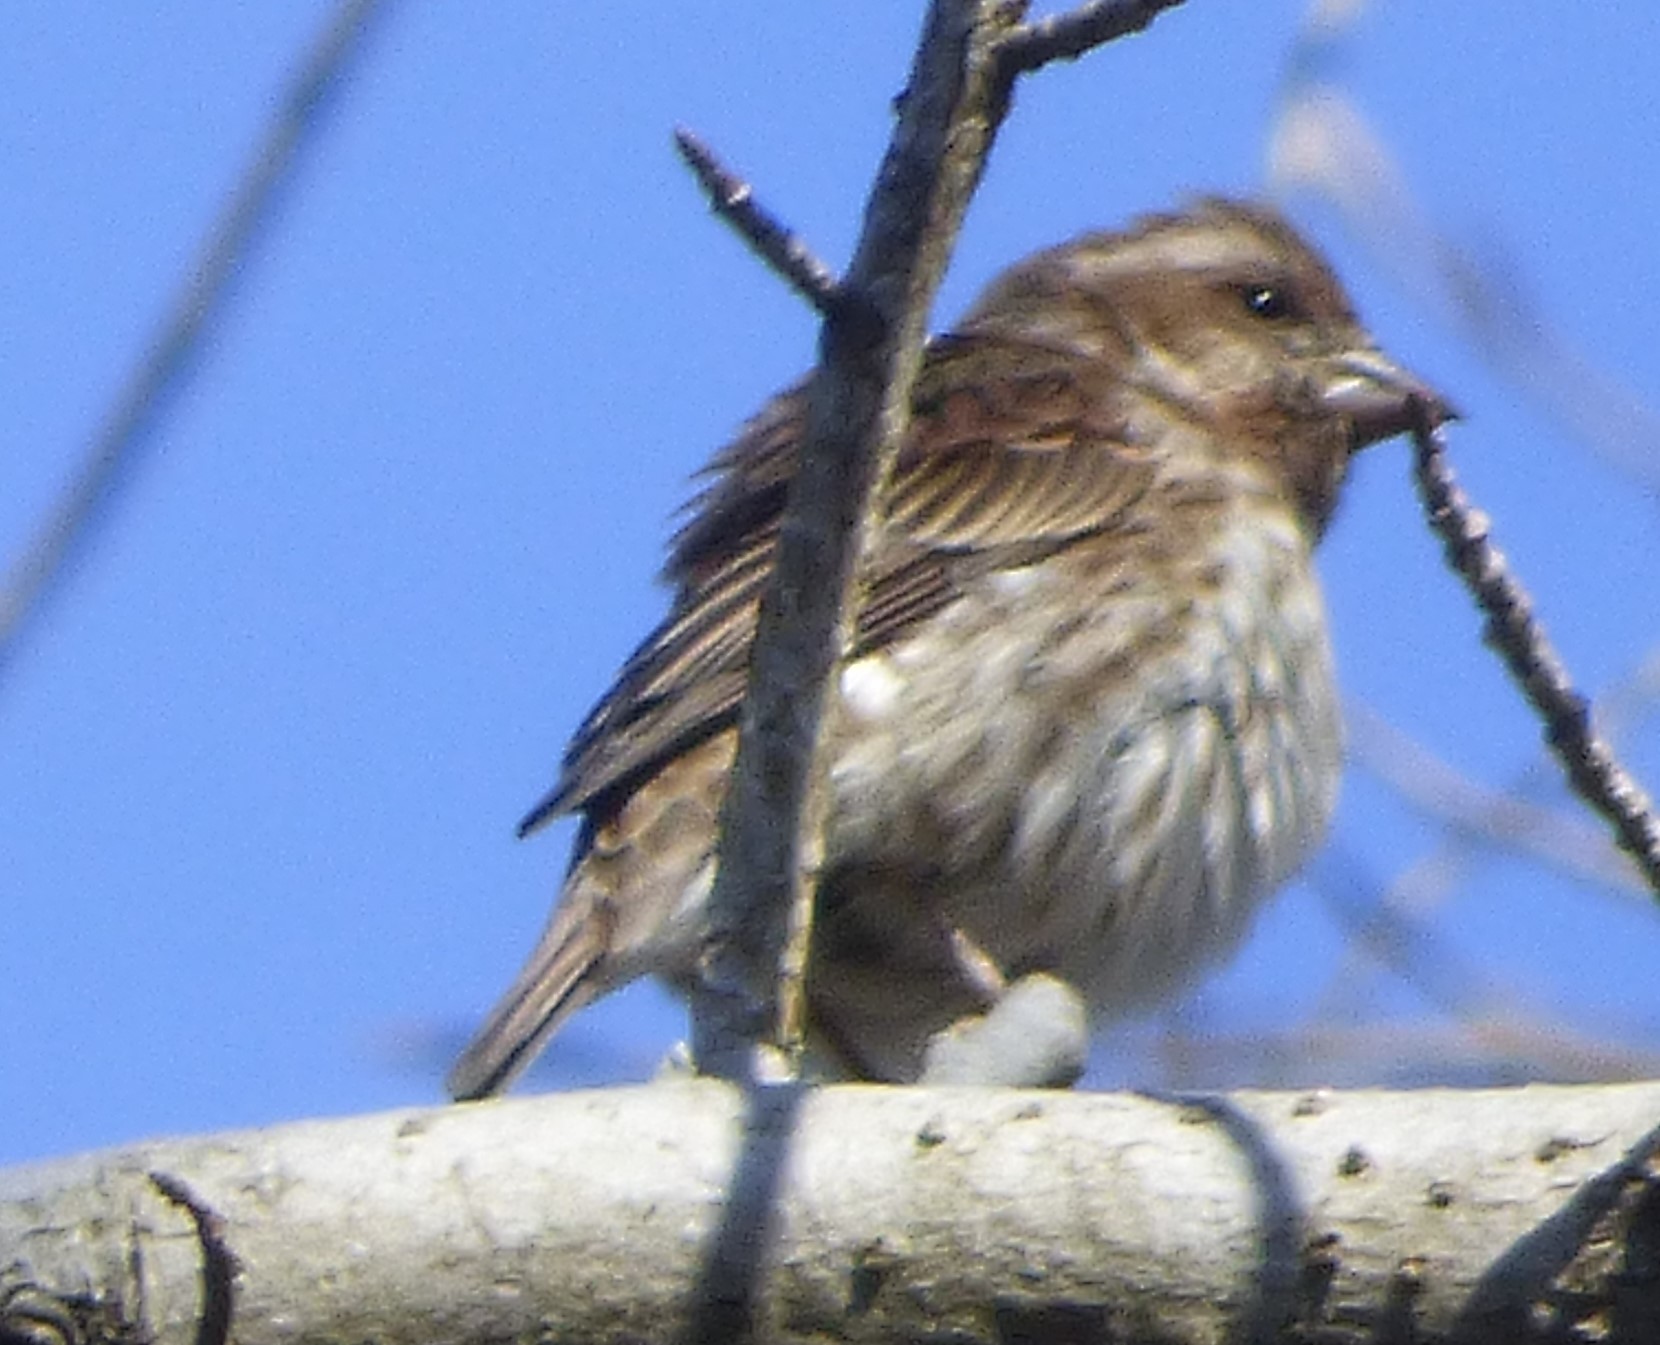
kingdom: Animalia
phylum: Chordata
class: Aves
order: Passeriformes
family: Fringillidae
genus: Haemorhous
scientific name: Haemorhous purpureus
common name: Purple finch
